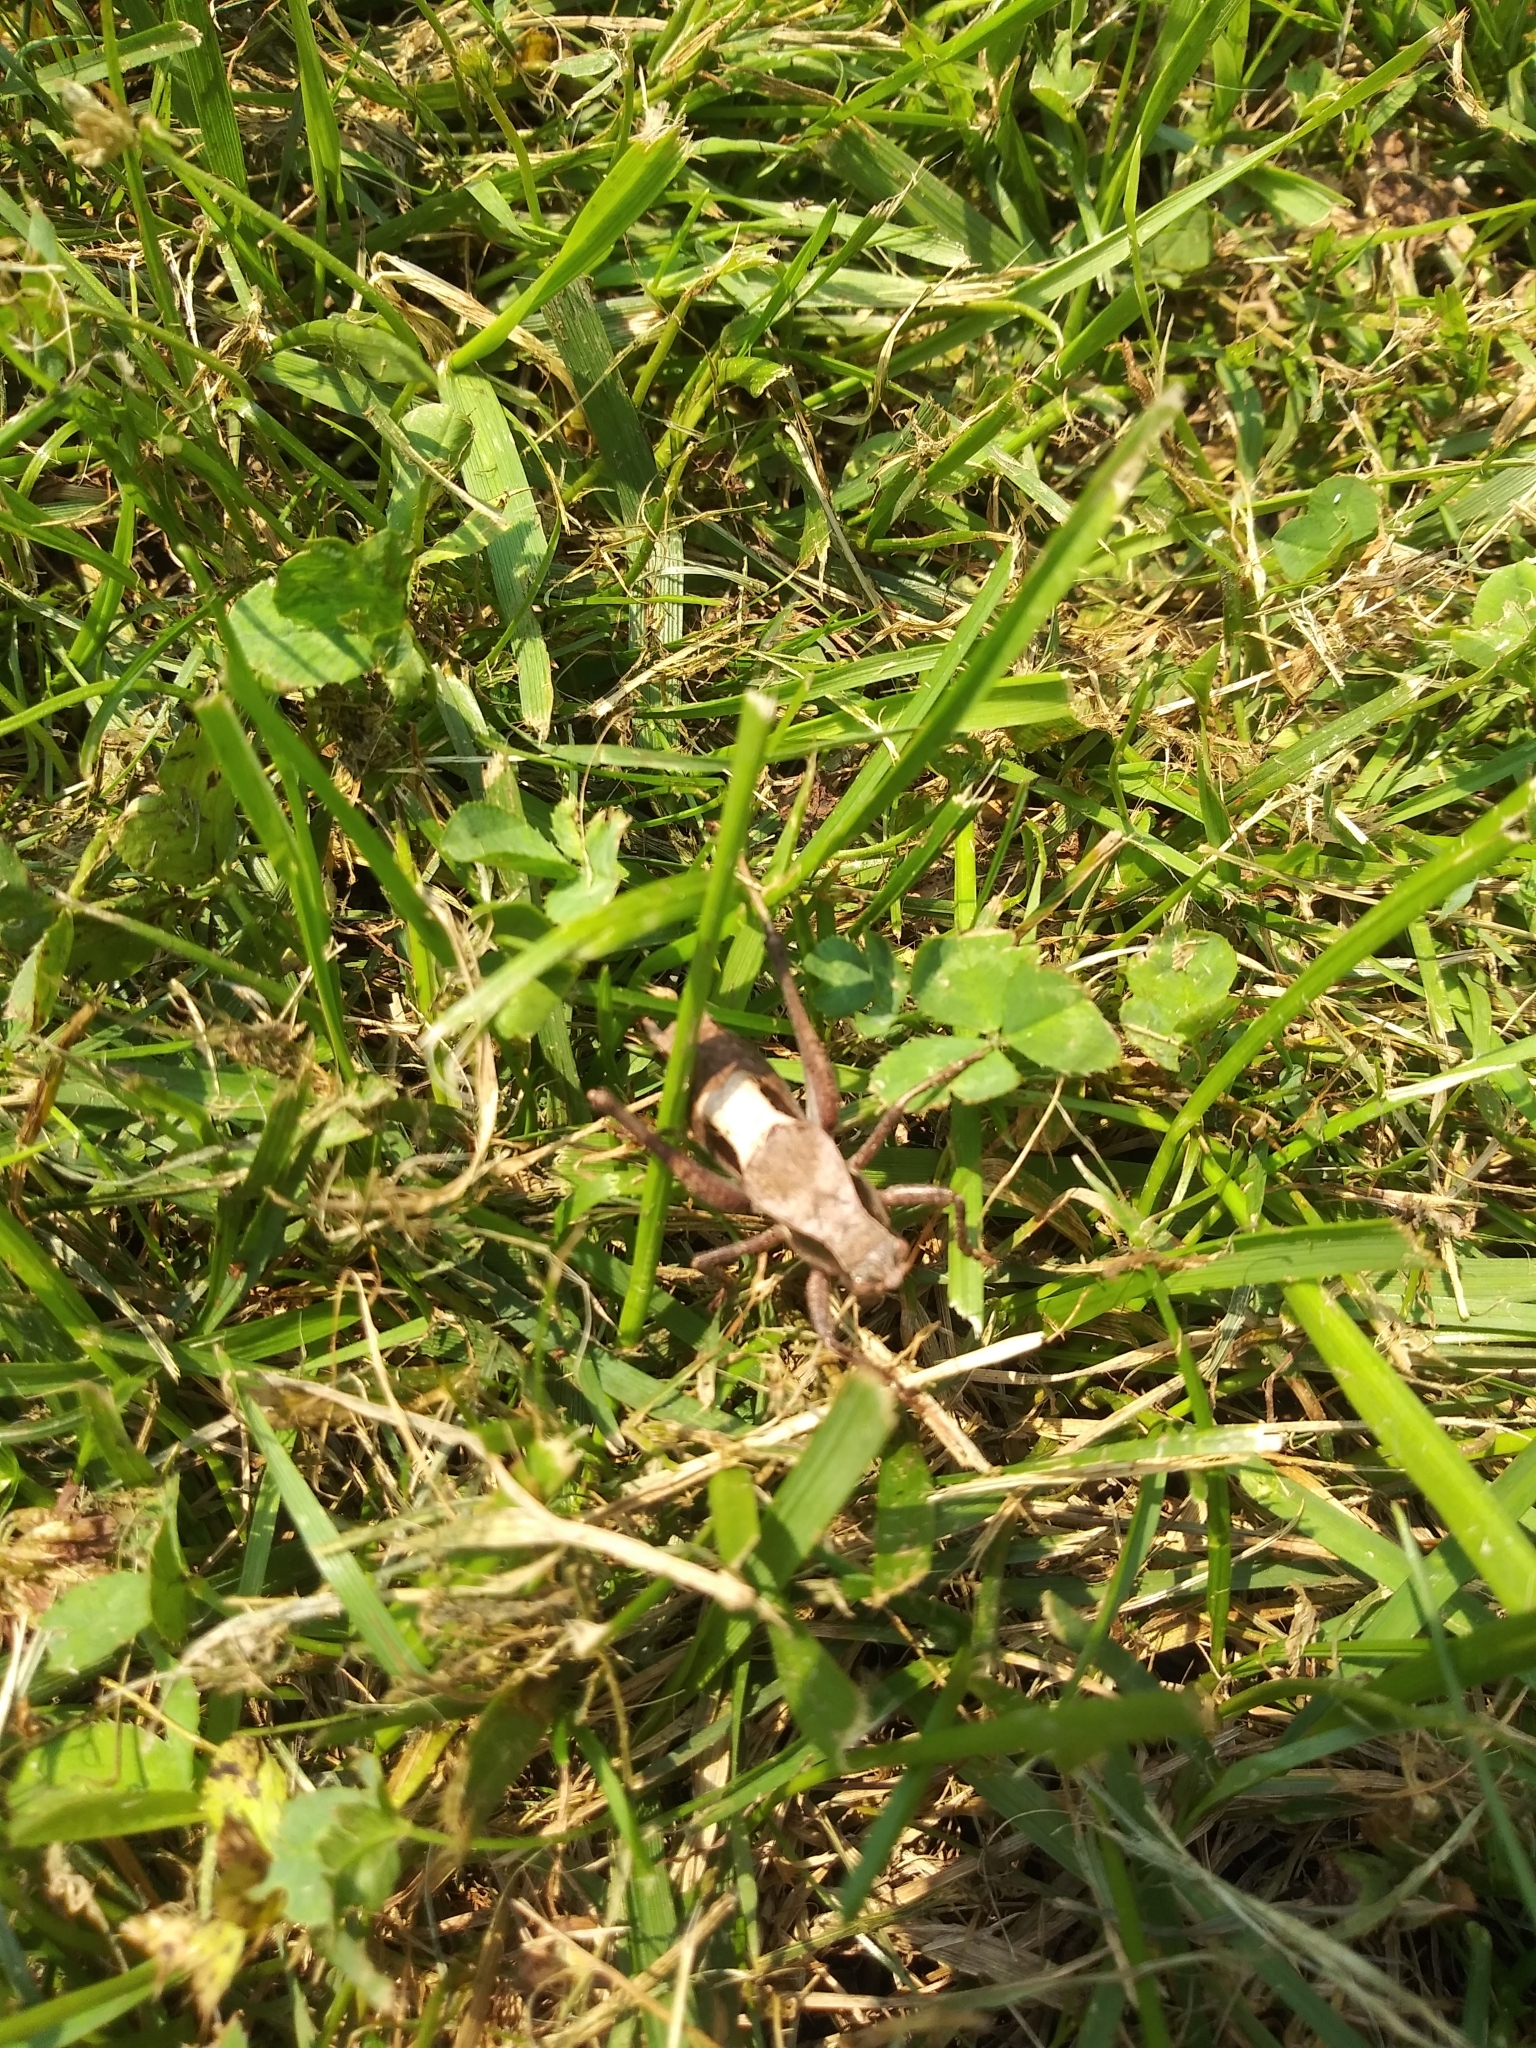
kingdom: Animalia
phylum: Arthropoda
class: Insecta
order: Orthoptera
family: Tettigoniidae
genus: Atlanticus
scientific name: Atlanticus testaceus
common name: Protean shieldback
